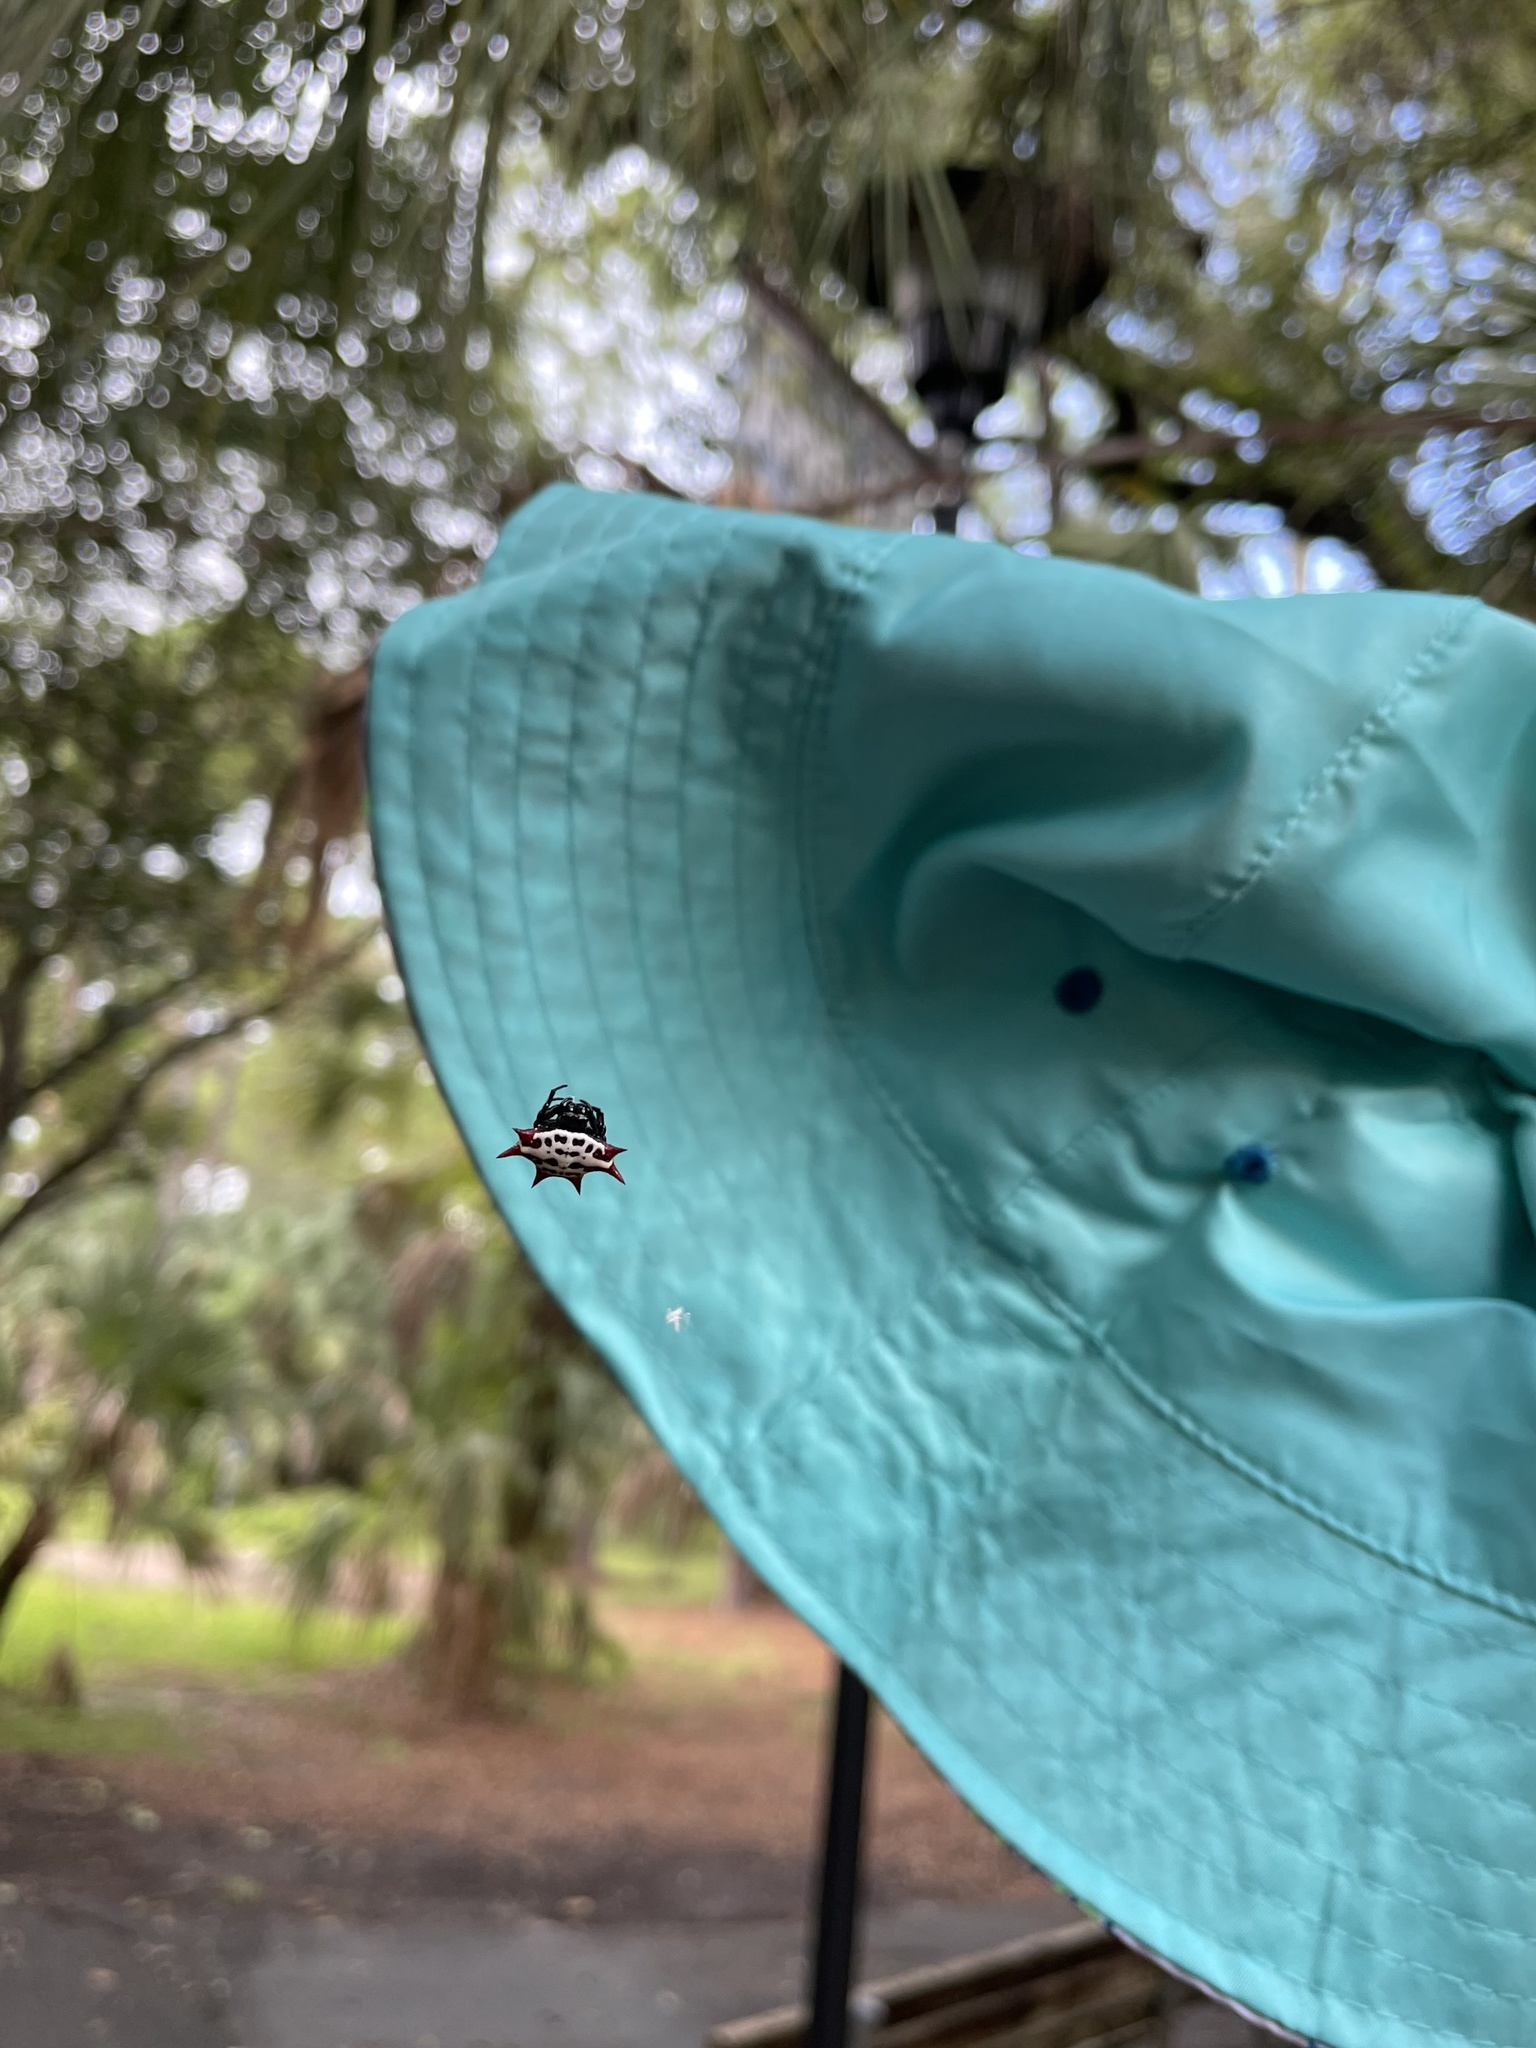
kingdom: Animalia
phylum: Arthropoda
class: Arachnida
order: Araneae
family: Araneidae
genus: Gasteracantha
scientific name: Gasteracantha cancriformis
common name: Orb weavers
